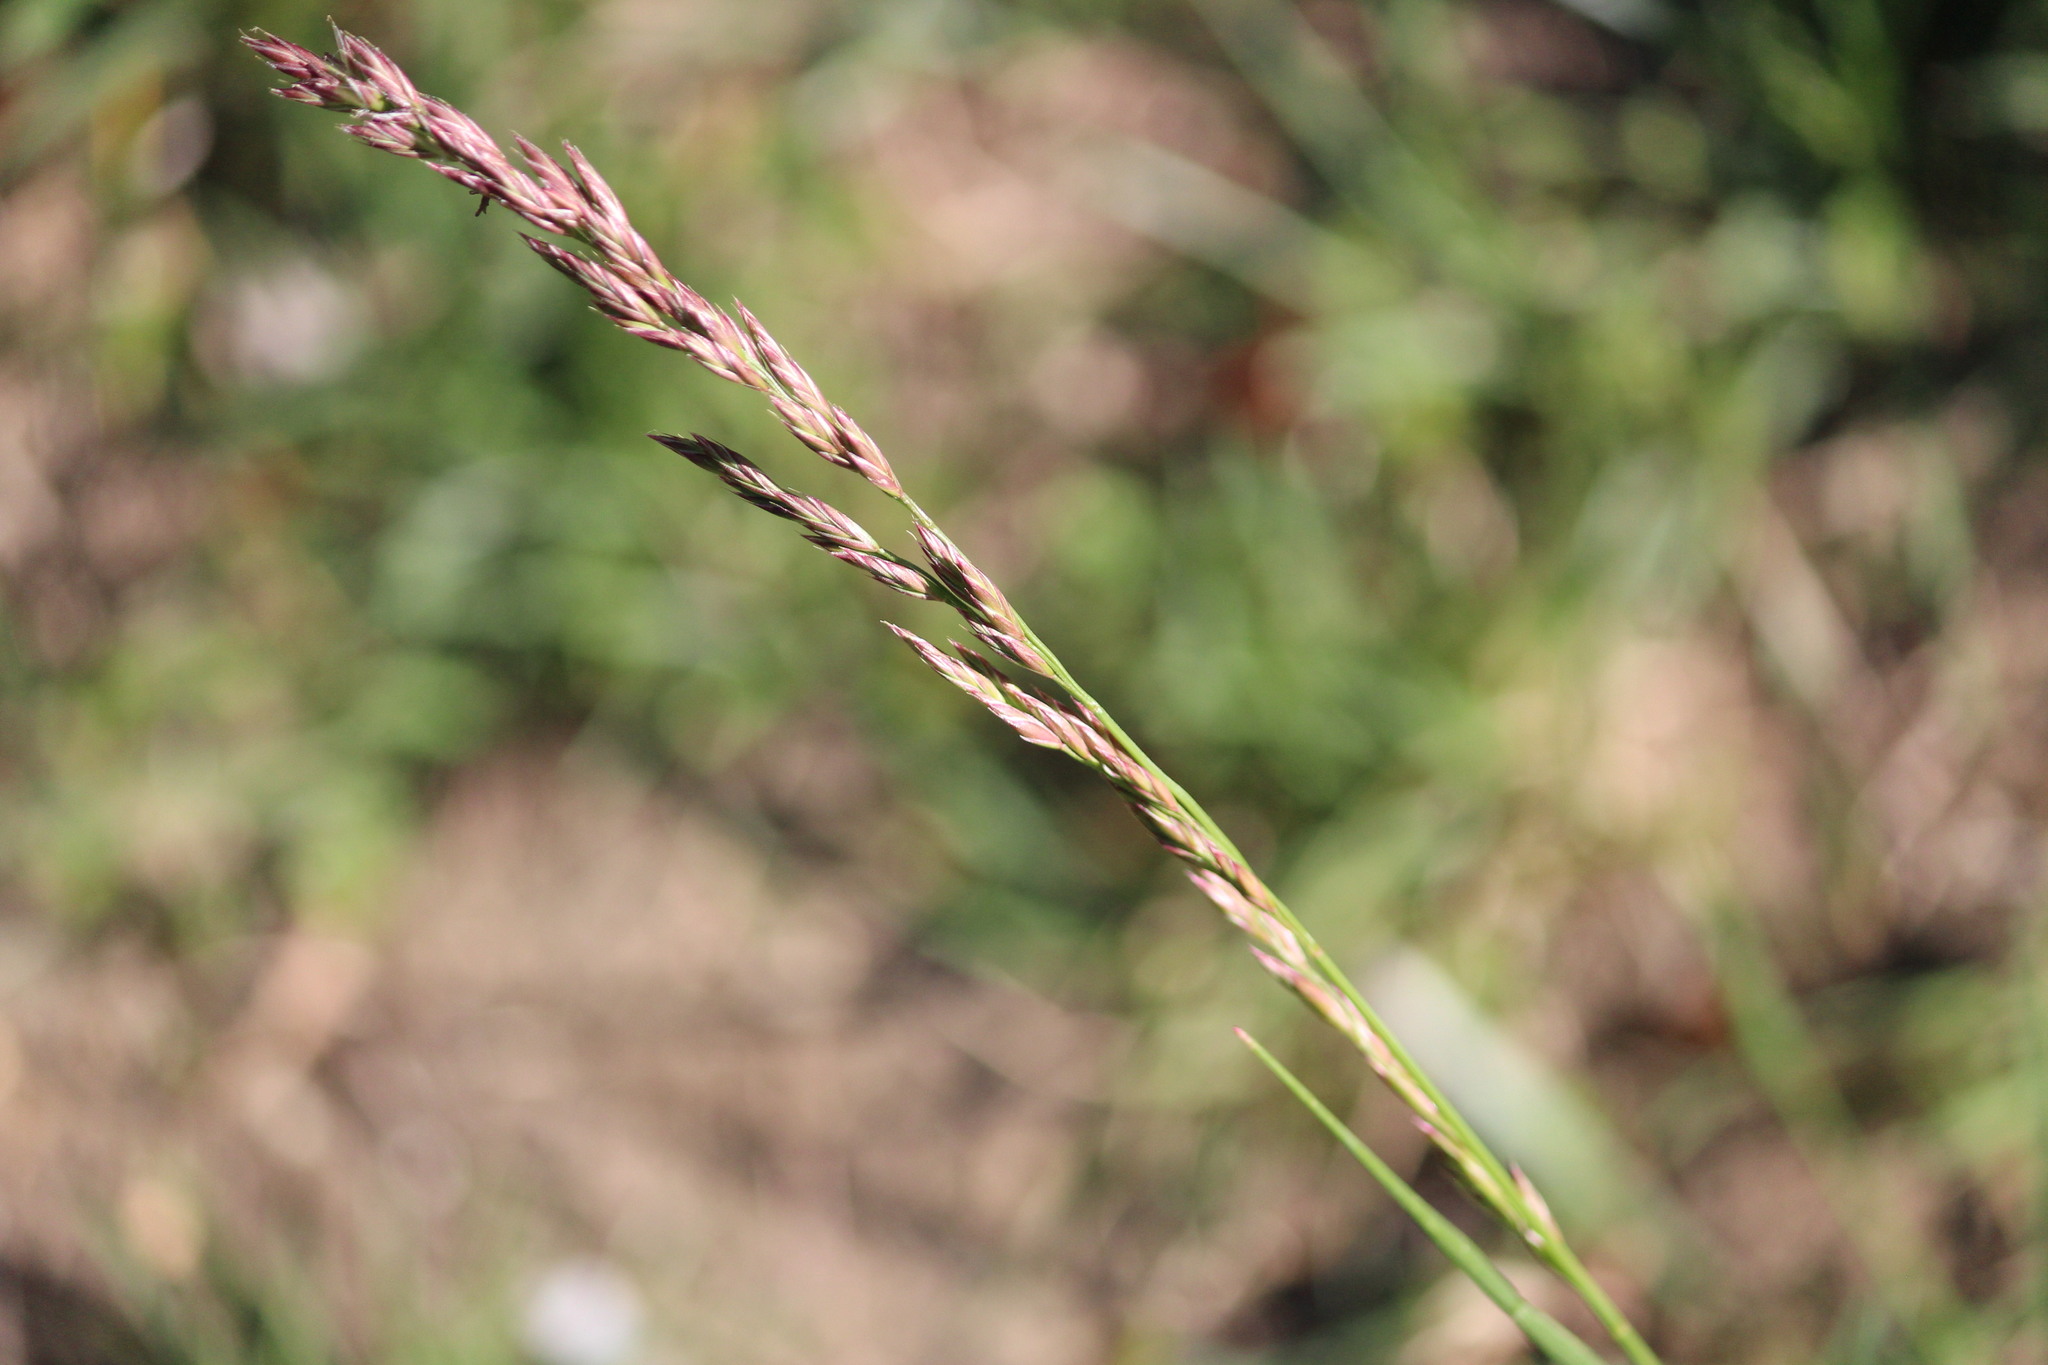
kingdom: Plantae
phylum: Tracheophyta
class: Liliopsida
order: Poales
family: Poaceae
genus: Lolium
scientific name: Lolium arundinaceum
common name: Reed fescue
